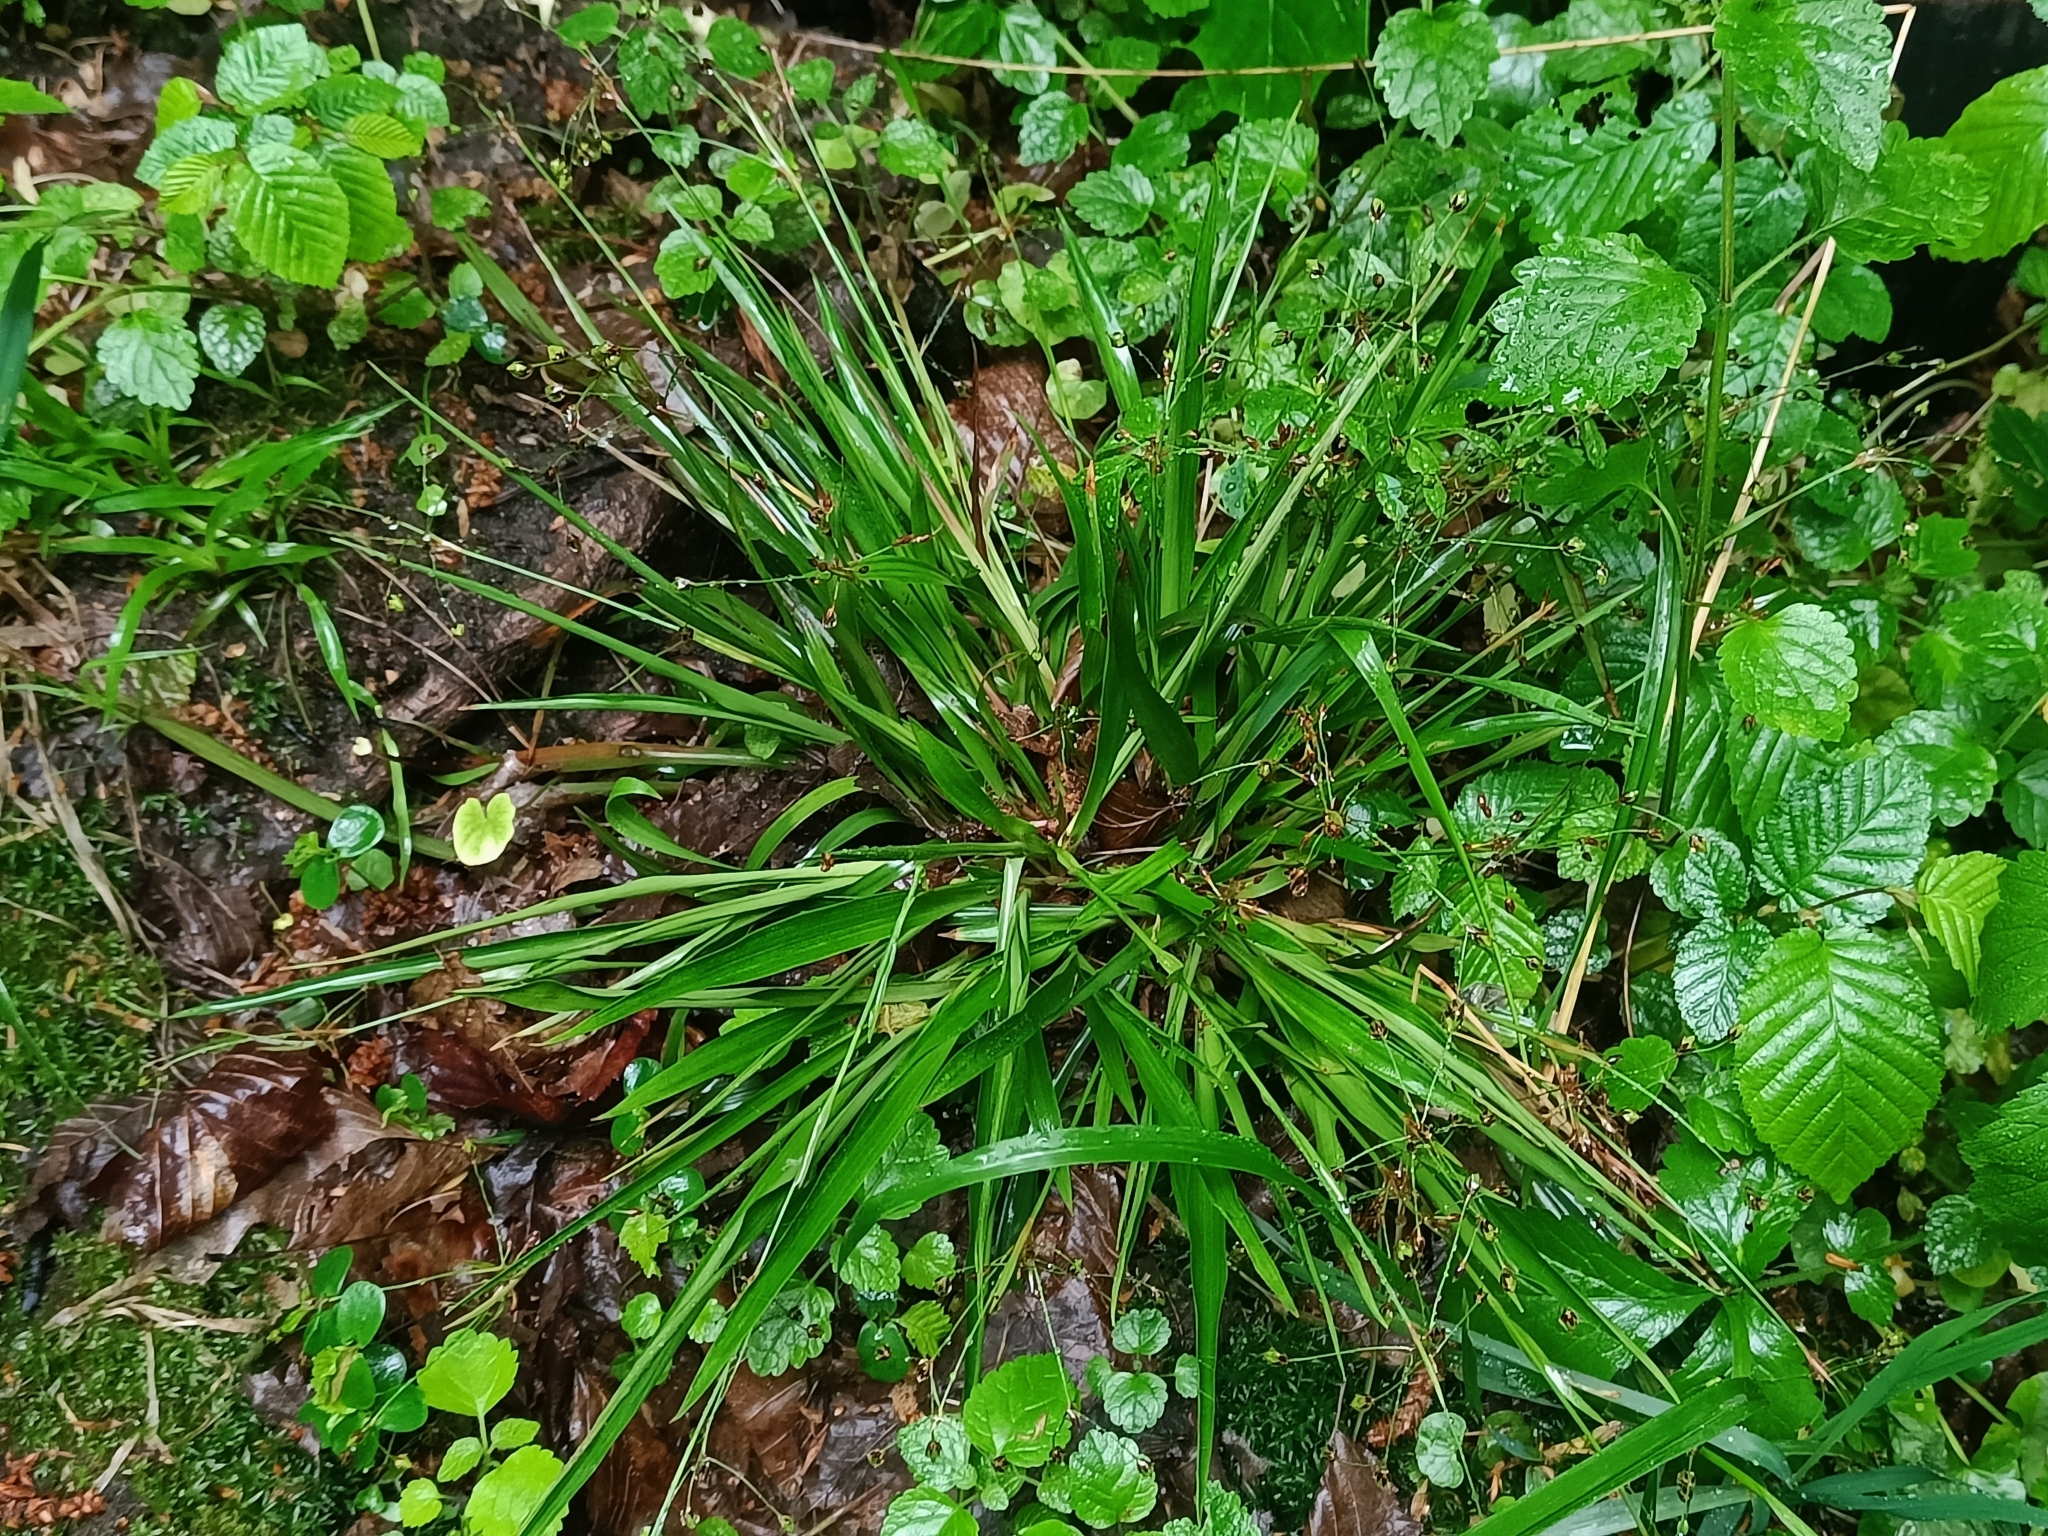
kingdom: Plantae
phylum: Tracheophyta
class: Liliopsida
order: Poales
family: Juncaceae
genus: Luzula
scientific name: Luzula pilosa
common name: Hairy wood-rush
